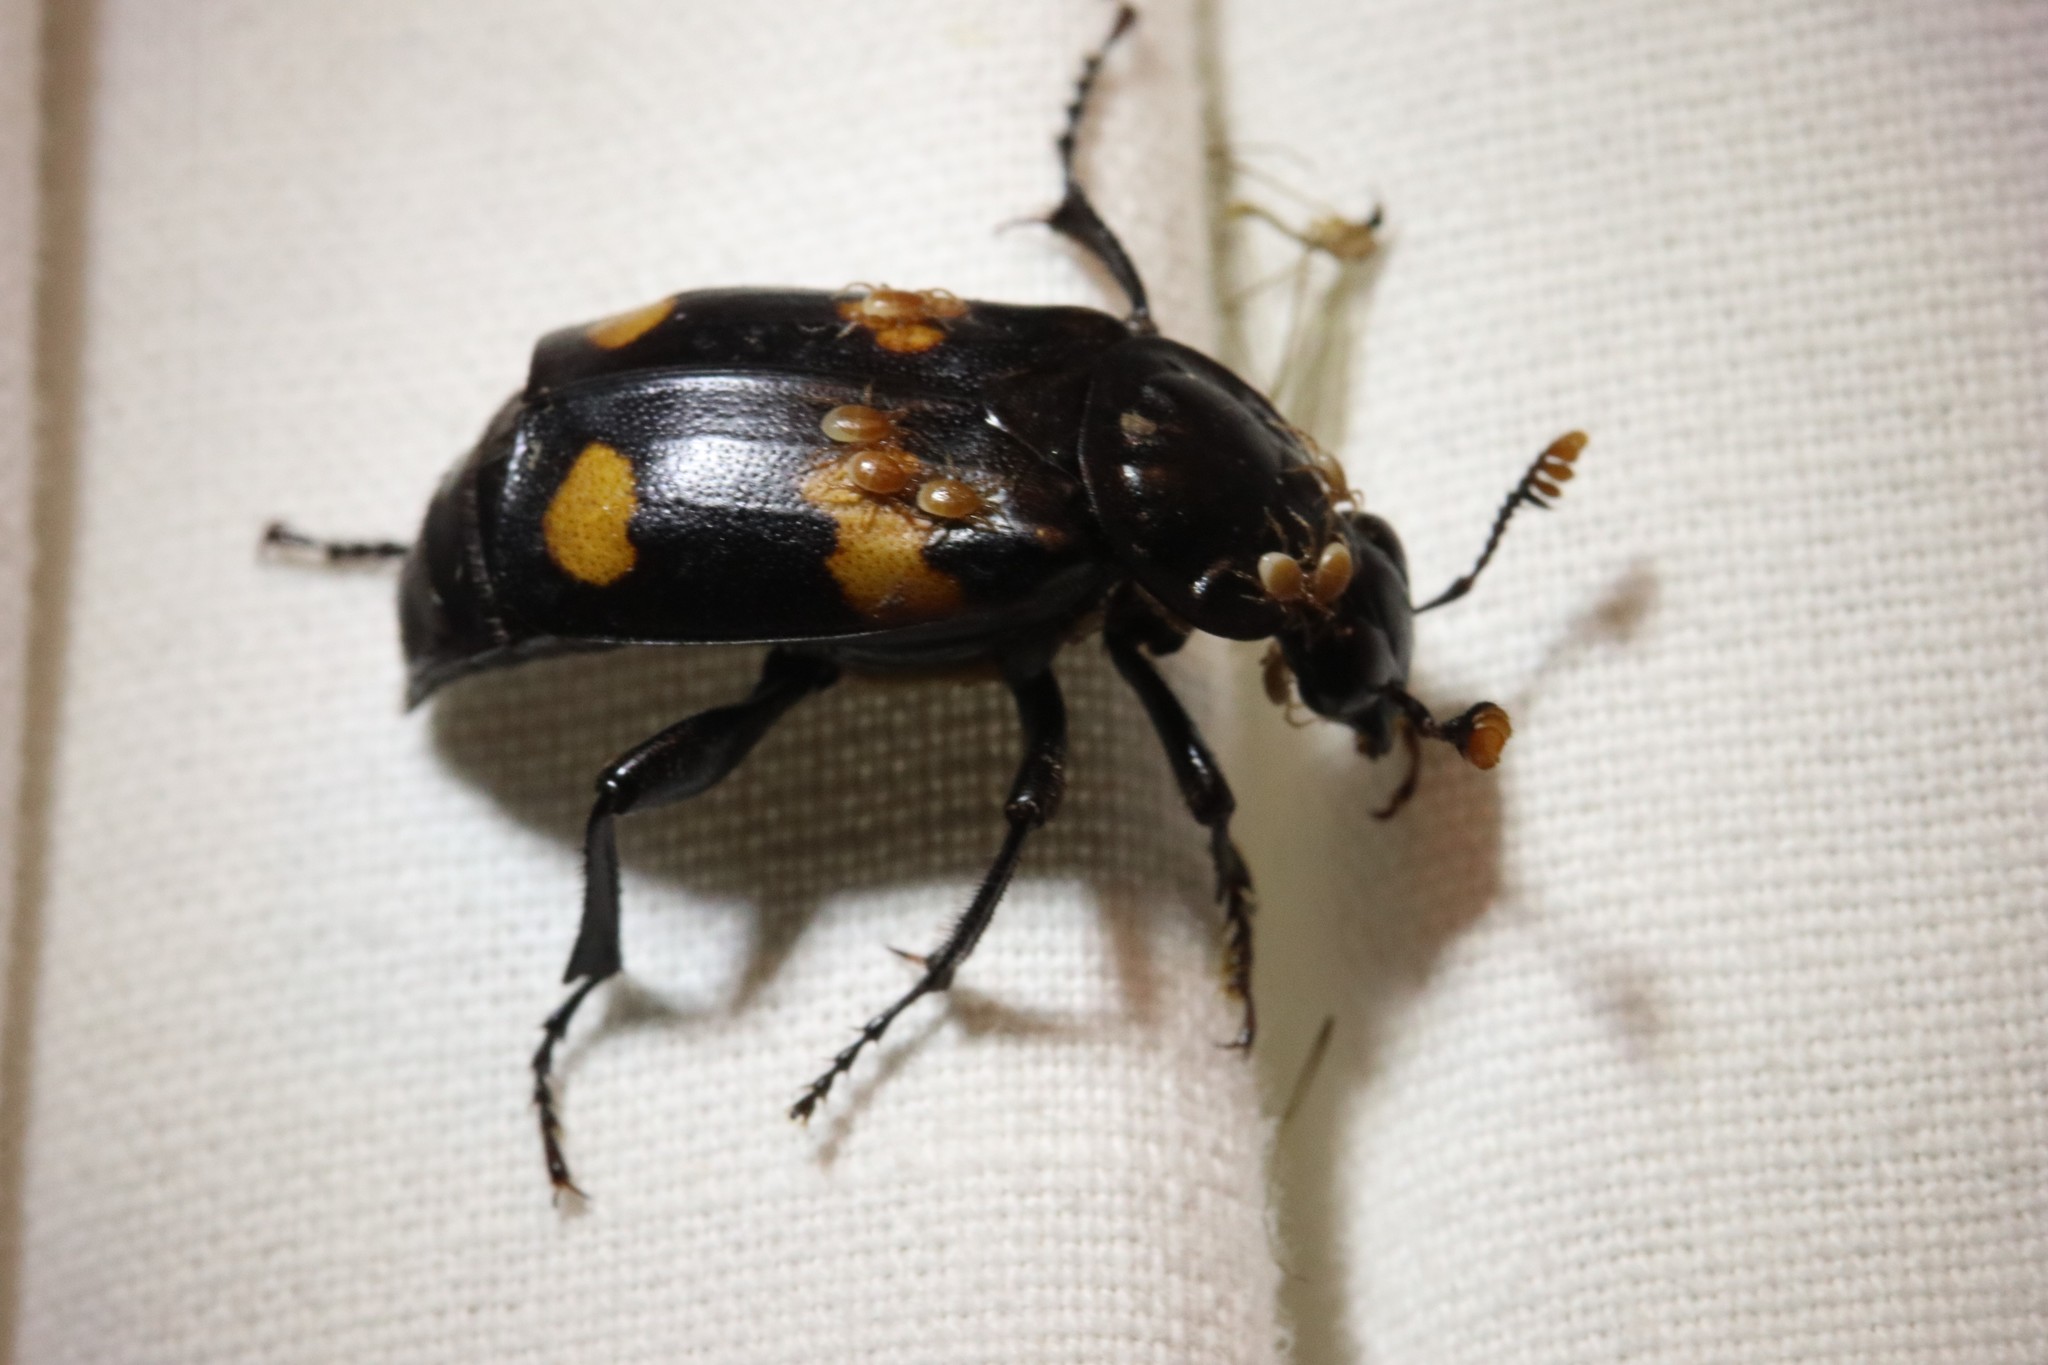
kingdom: Animalia
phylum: Arthropoda
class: Insecta
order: Coleoptera
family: Staphylinidae
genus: Nicrophorus
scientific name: Nicrophorus orbicollis
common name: Roundneck sexton beetle
